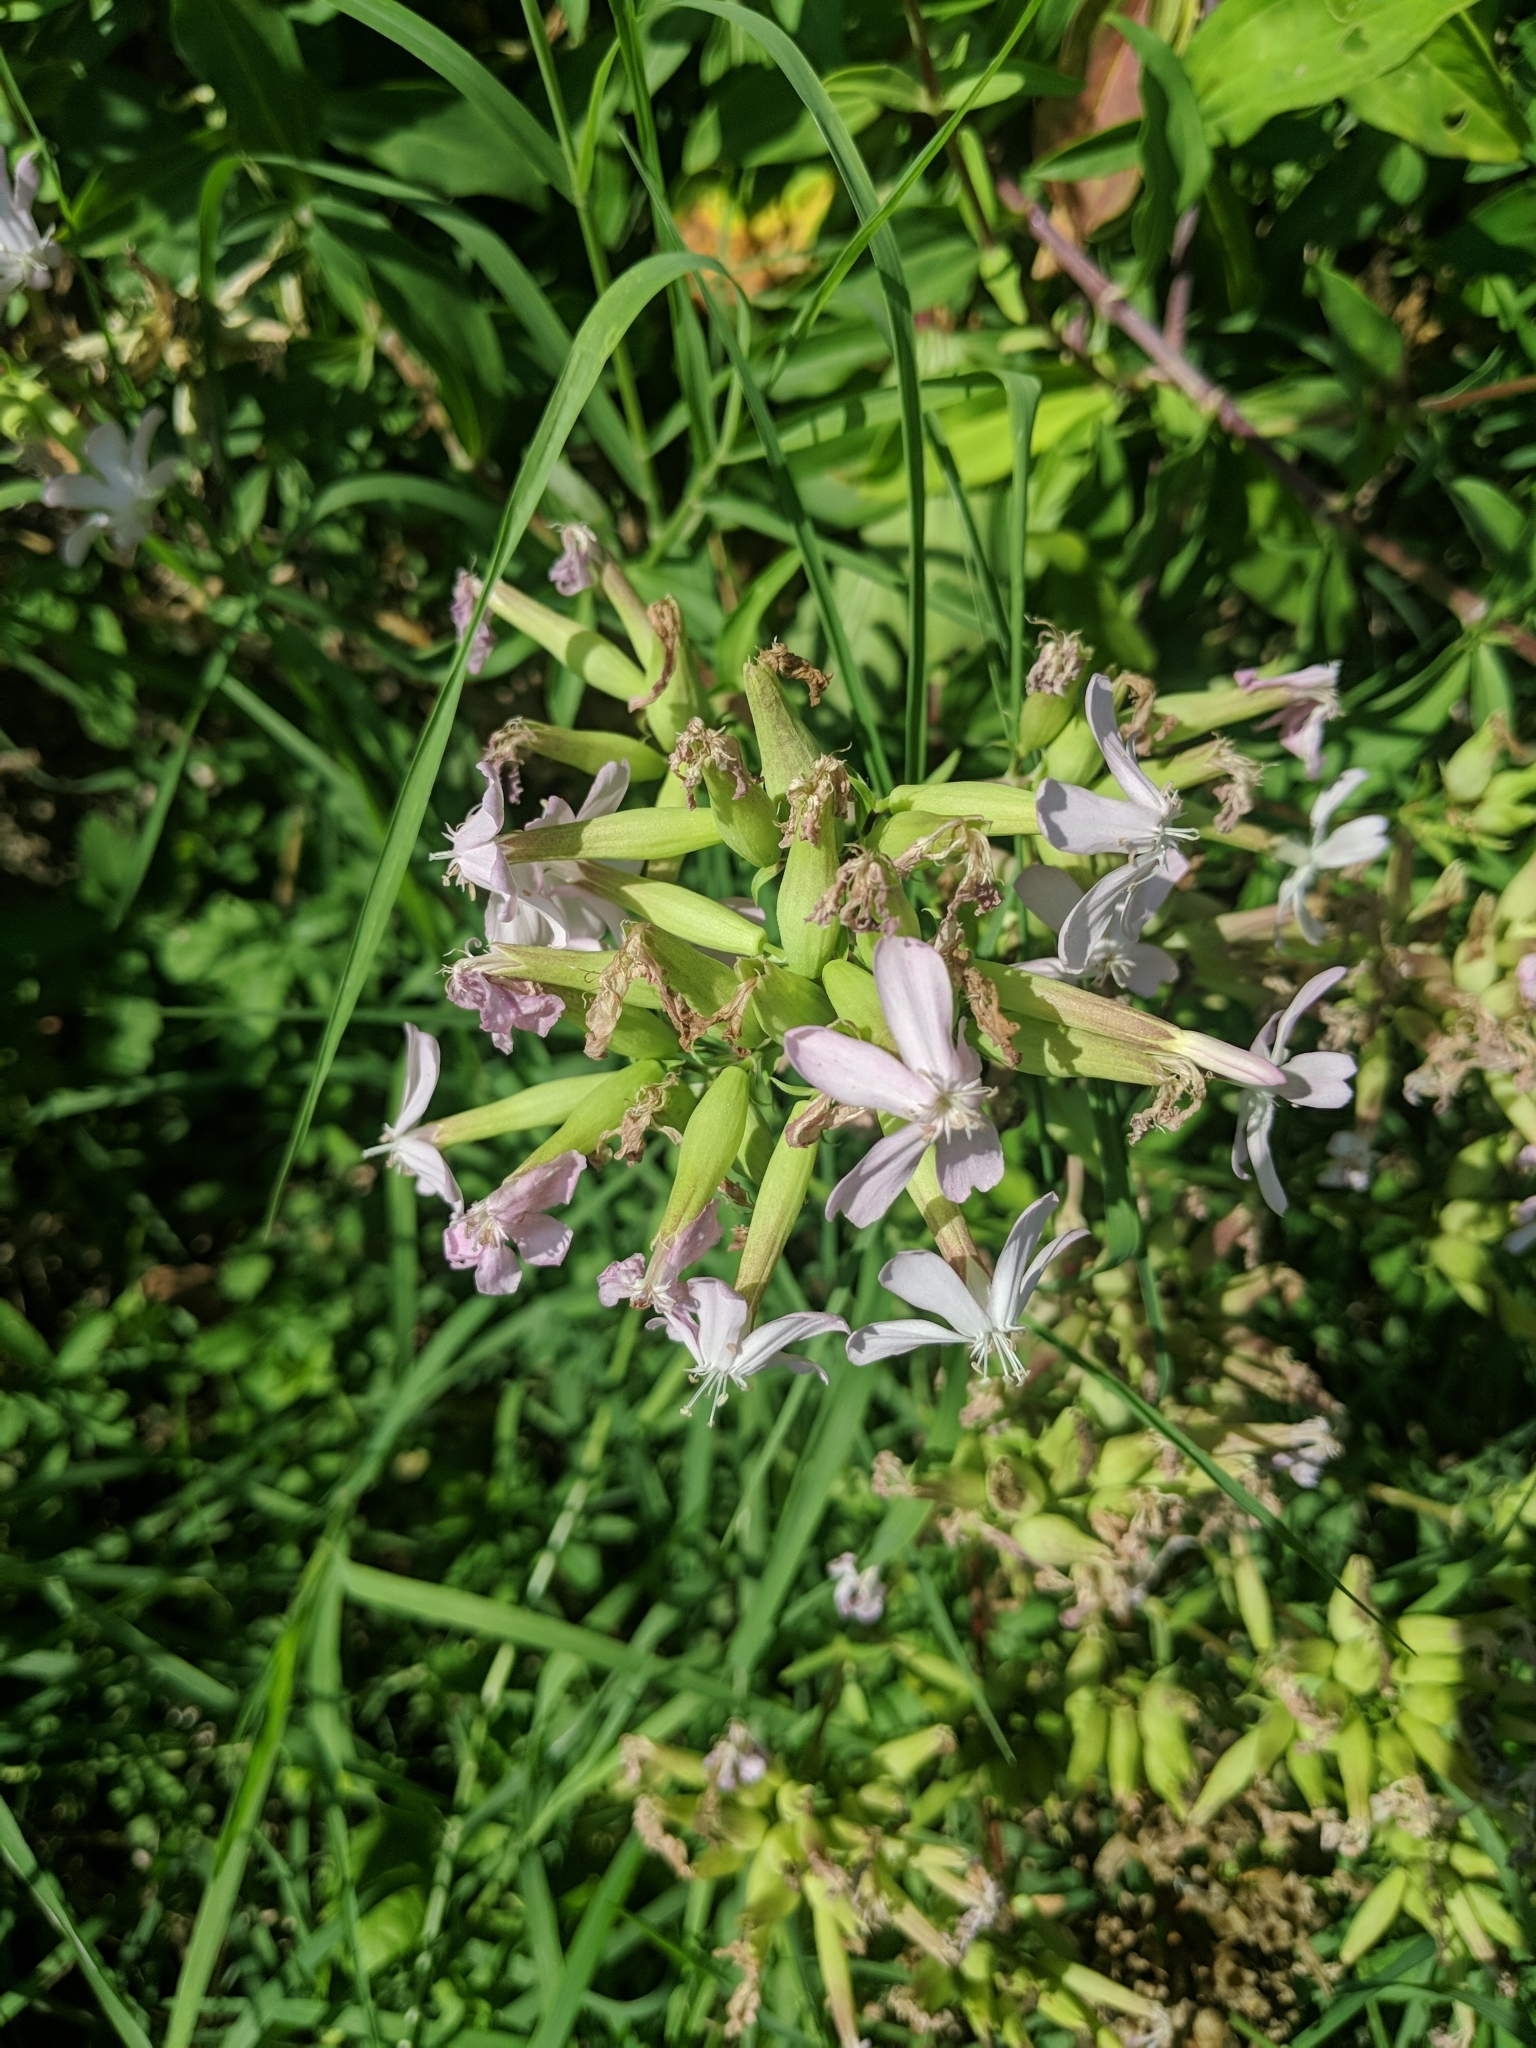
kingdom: Plantae
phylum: Tracheophyta
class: Magnoliopsida
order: Caryophyllales
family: Caryophyllaceae
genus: Saponaria
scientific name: Saponaria officinalis
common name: Soapwort
